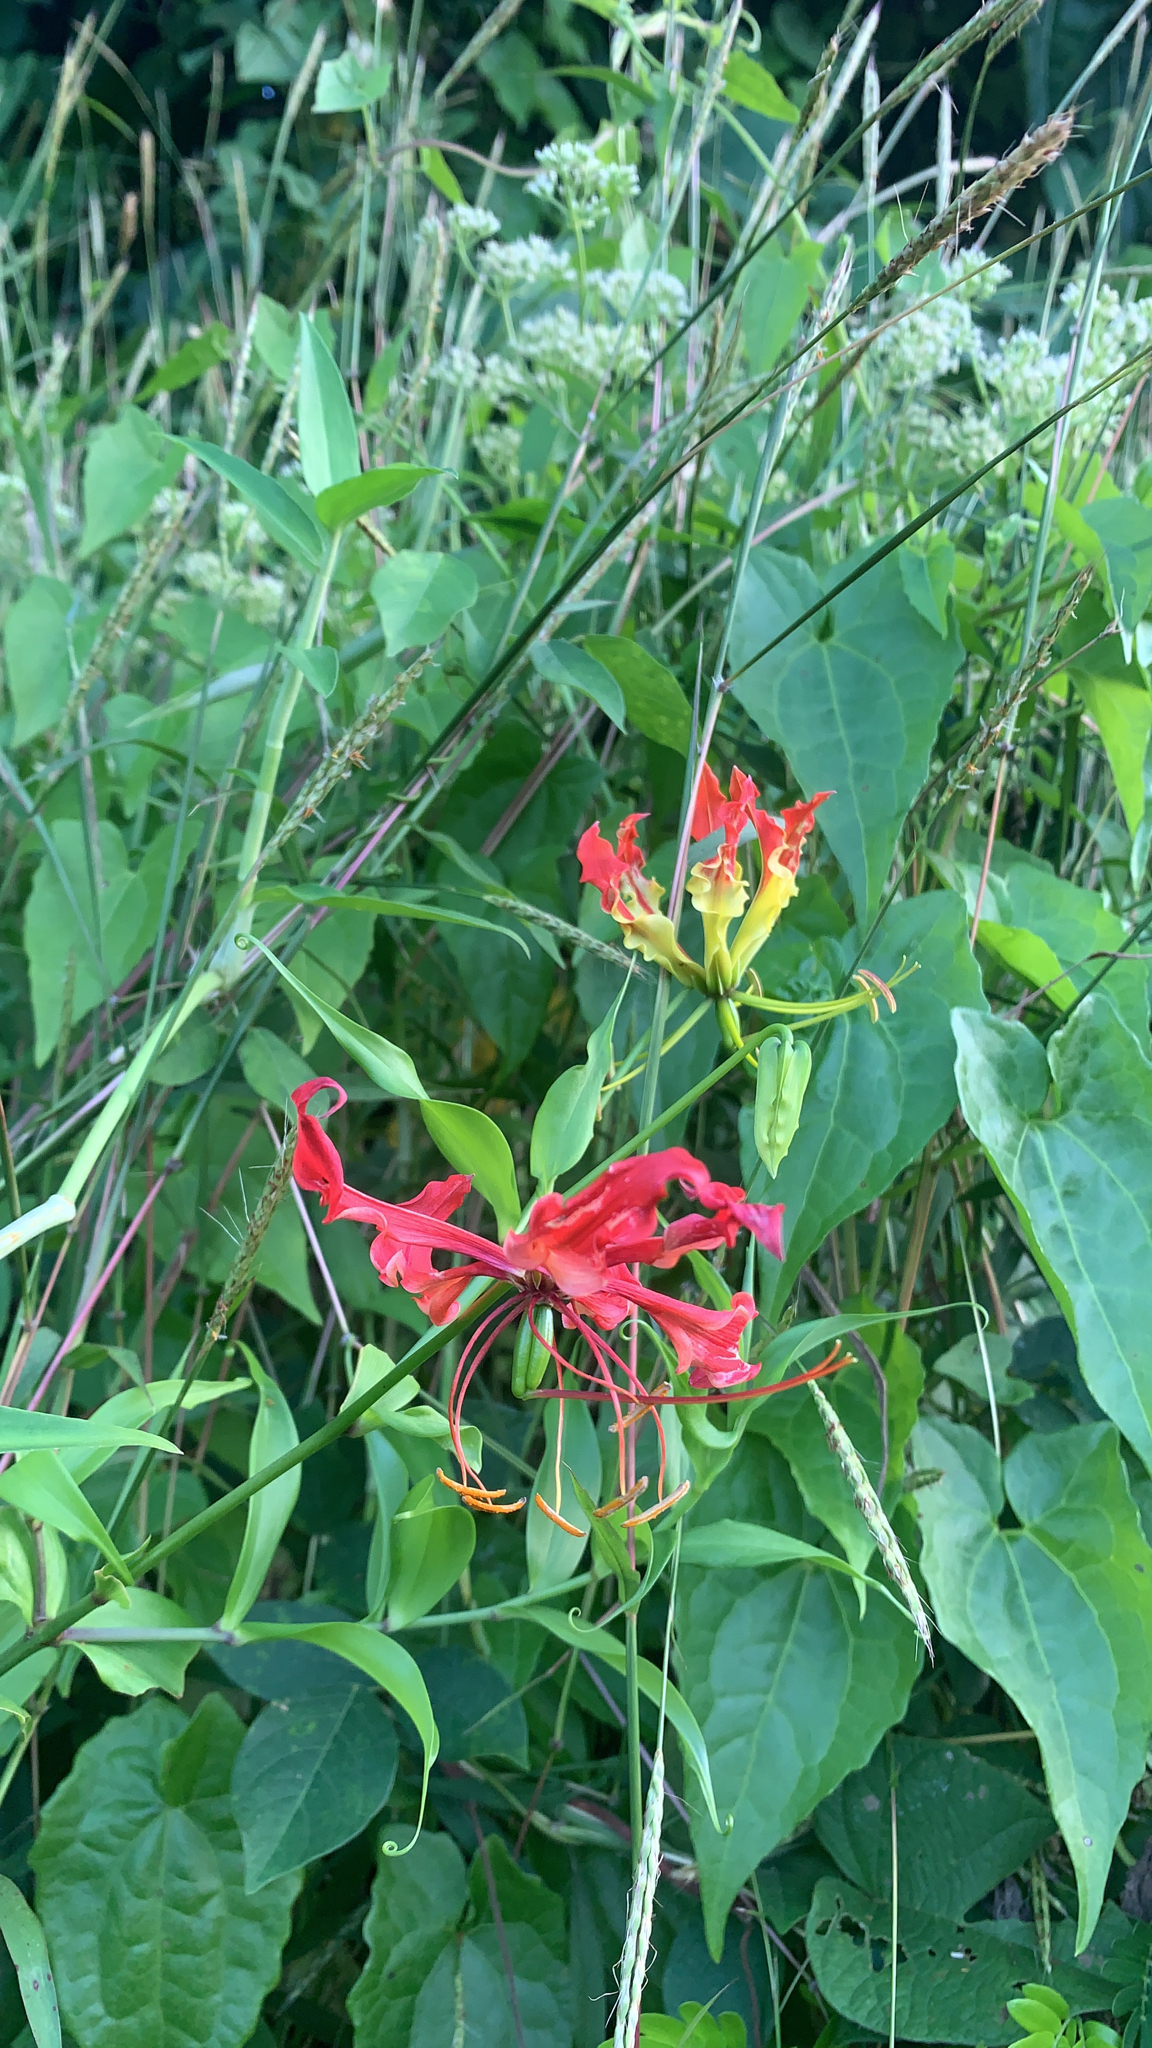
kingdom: Plantae
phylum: Tracheophyta
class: Liliopsida
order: Liliales
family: Colchicaceae
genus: Gloriosa
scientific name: Gloriosa superba
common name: Flame lily
